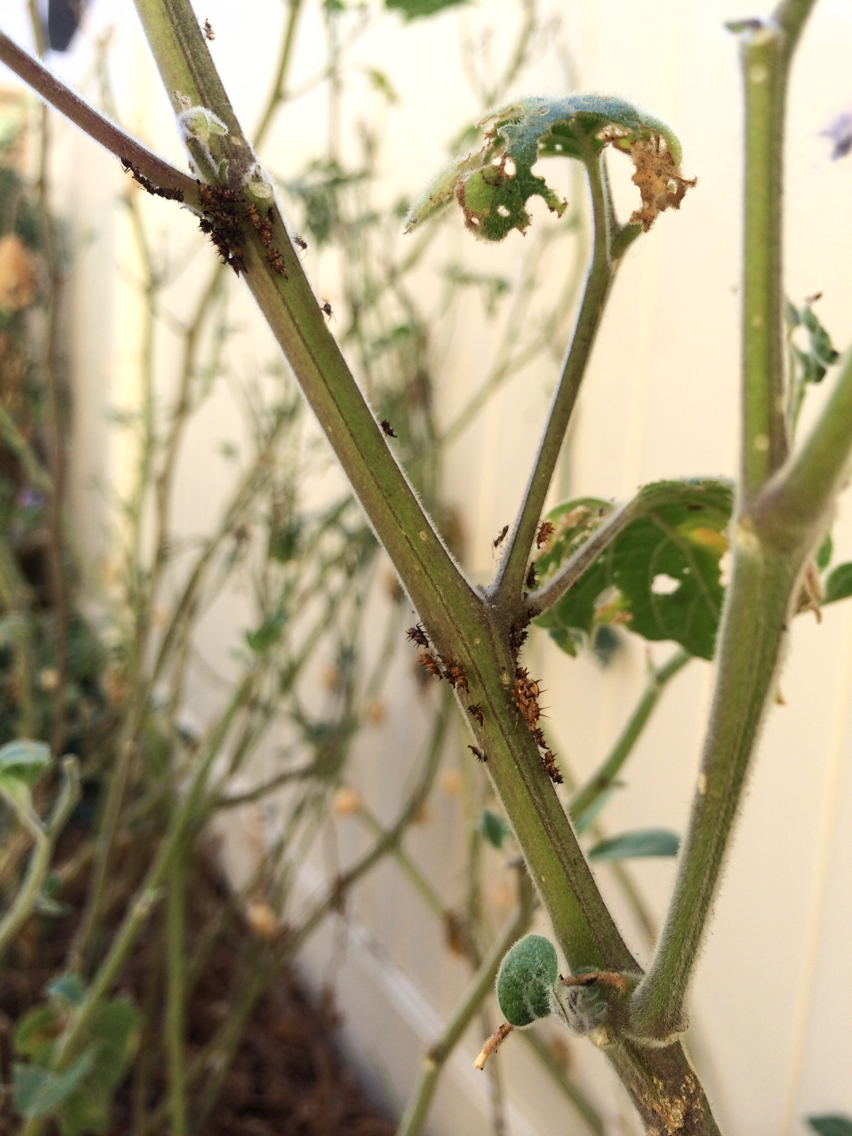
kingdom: Animalia
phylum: Arthropoda
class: Insecta
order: Hemiptera
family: Membracidae
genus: Antianthe
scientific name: Antianthe expansa
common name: Keeled tree hopper
